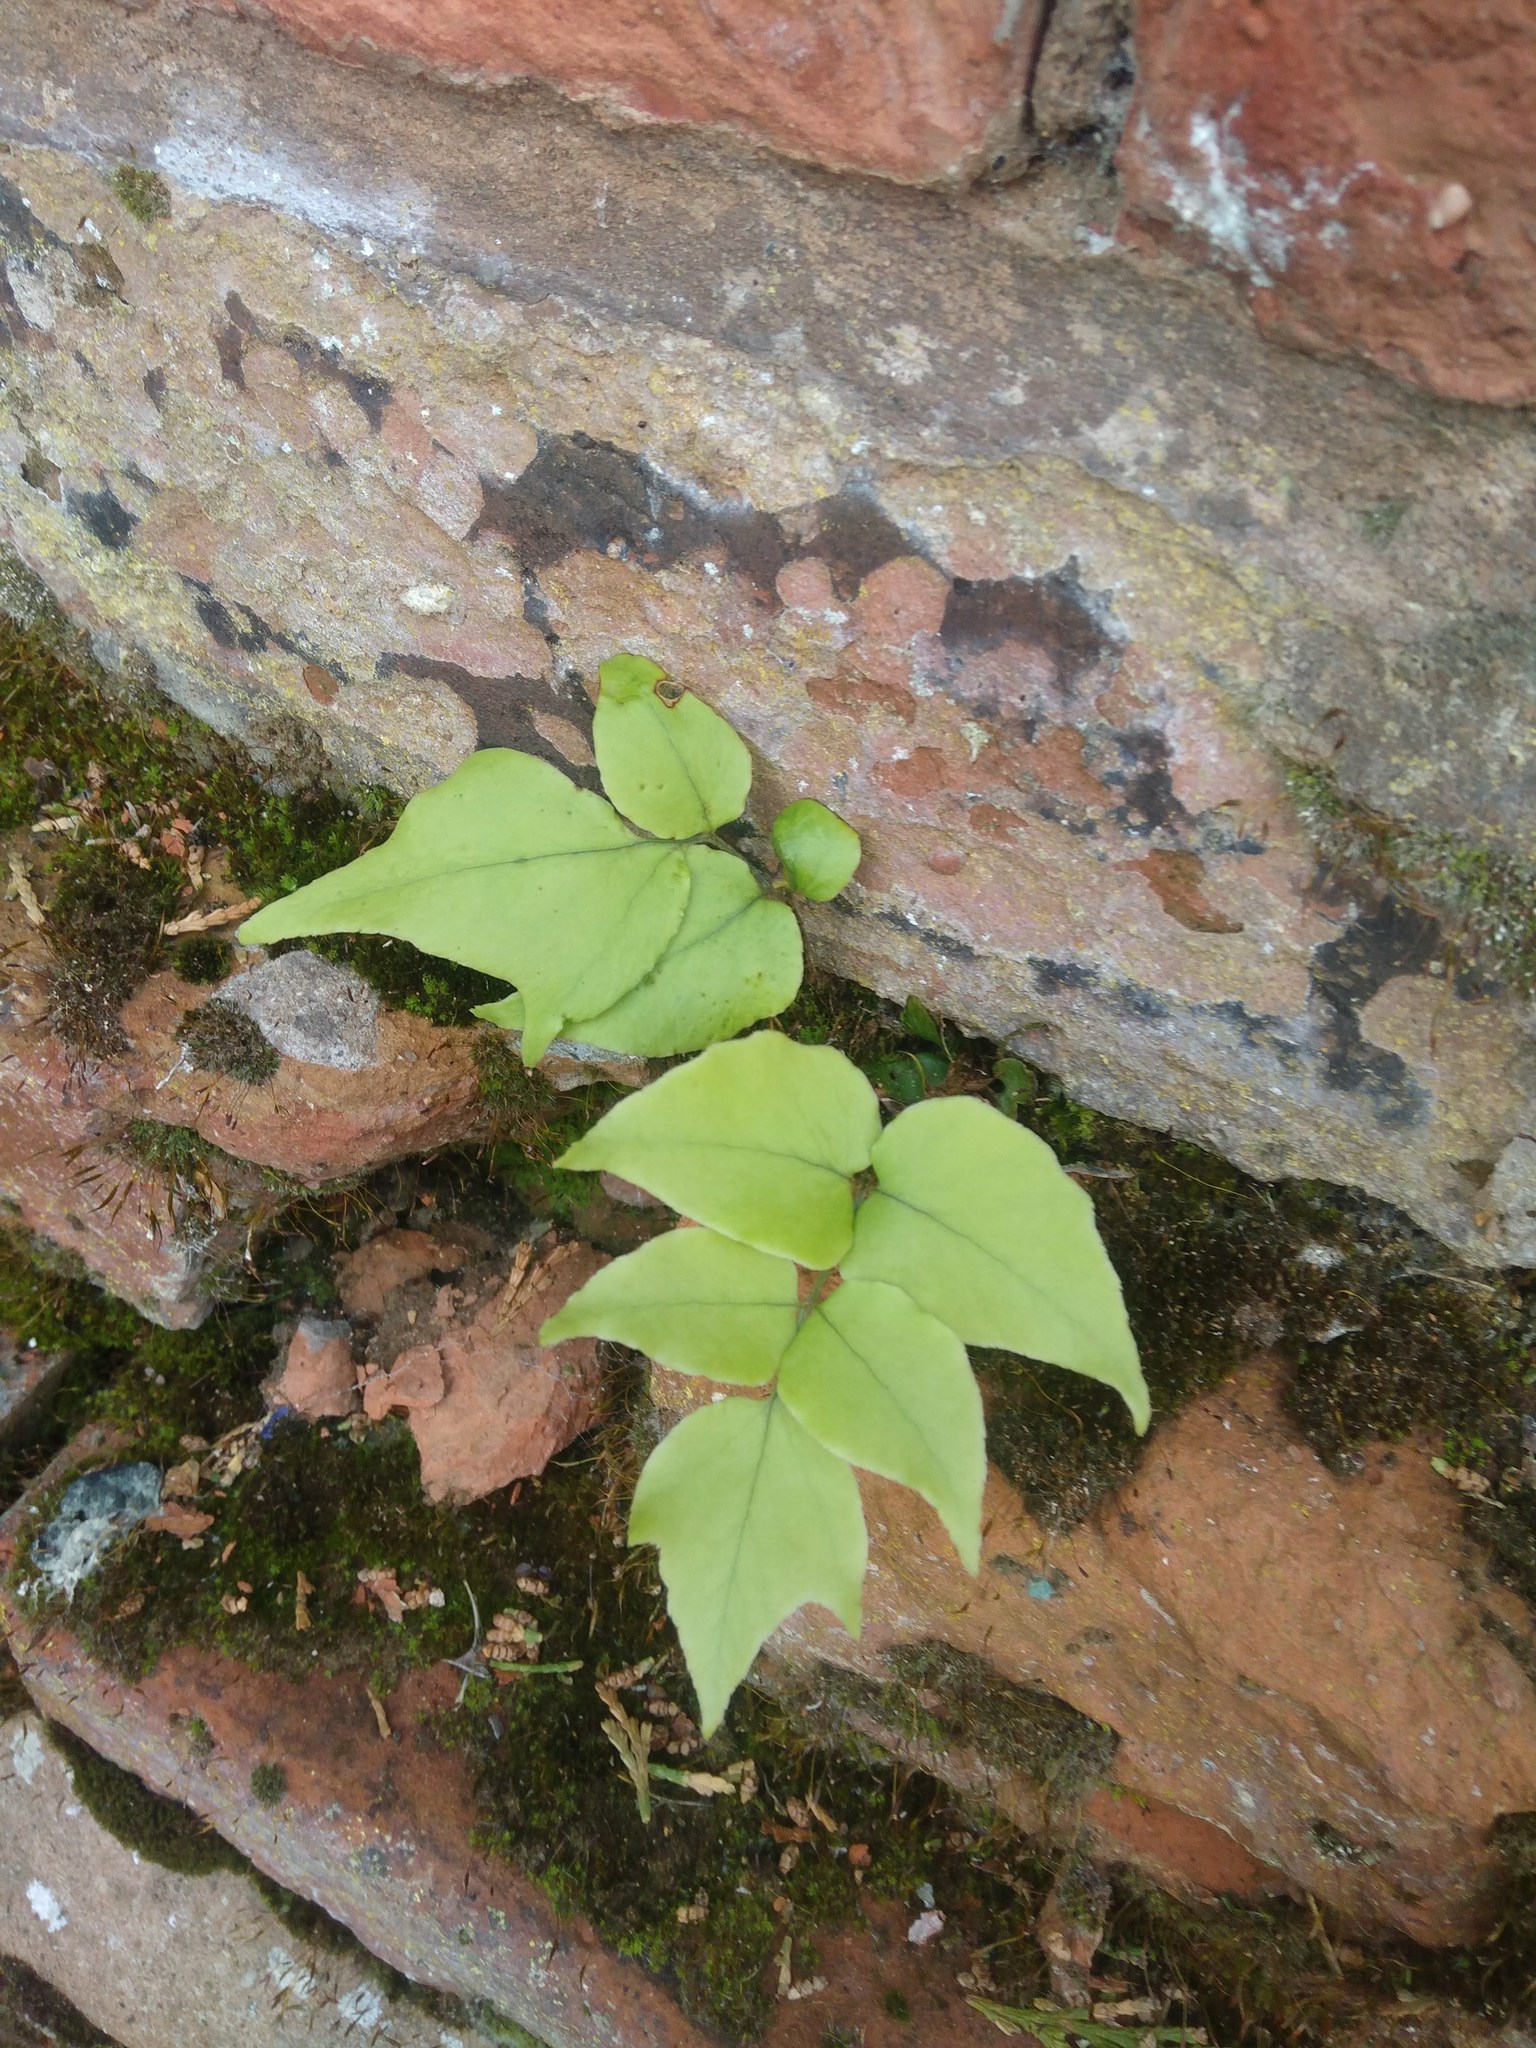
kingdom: Plantae
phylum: Tracheophyta
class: Polypodiopsida
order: Polypodiales
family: Dryopteridaceae
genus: Cyrtomium
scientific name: Cyrtomium fortunei
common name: Asian netvein hollyfern
